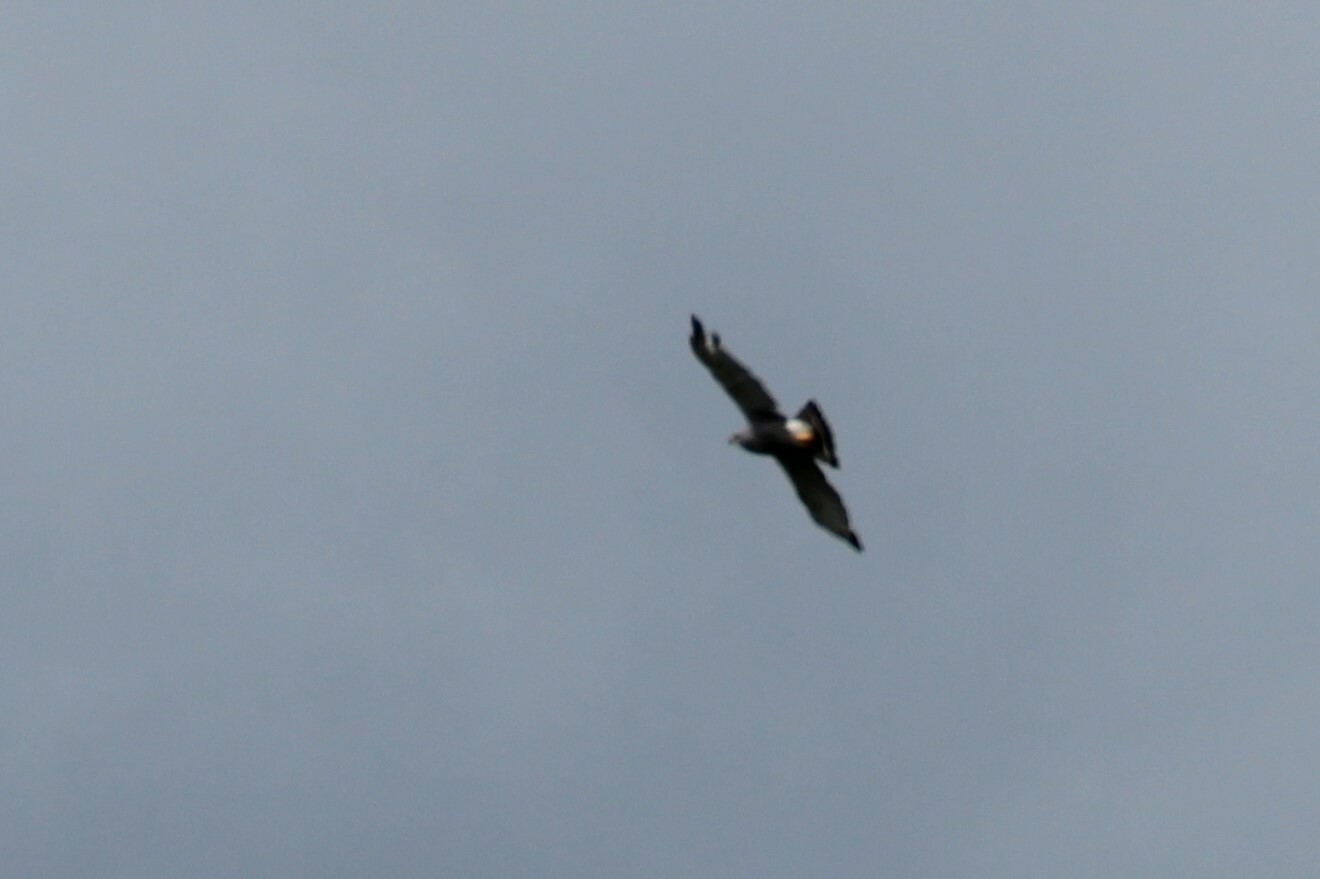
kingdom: Animalia
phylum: Chordata
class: Aves
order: Accipitriformes
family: Accipitridae
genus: Buteo
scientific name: Buteo nitidus
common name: Grey-lined hawk
